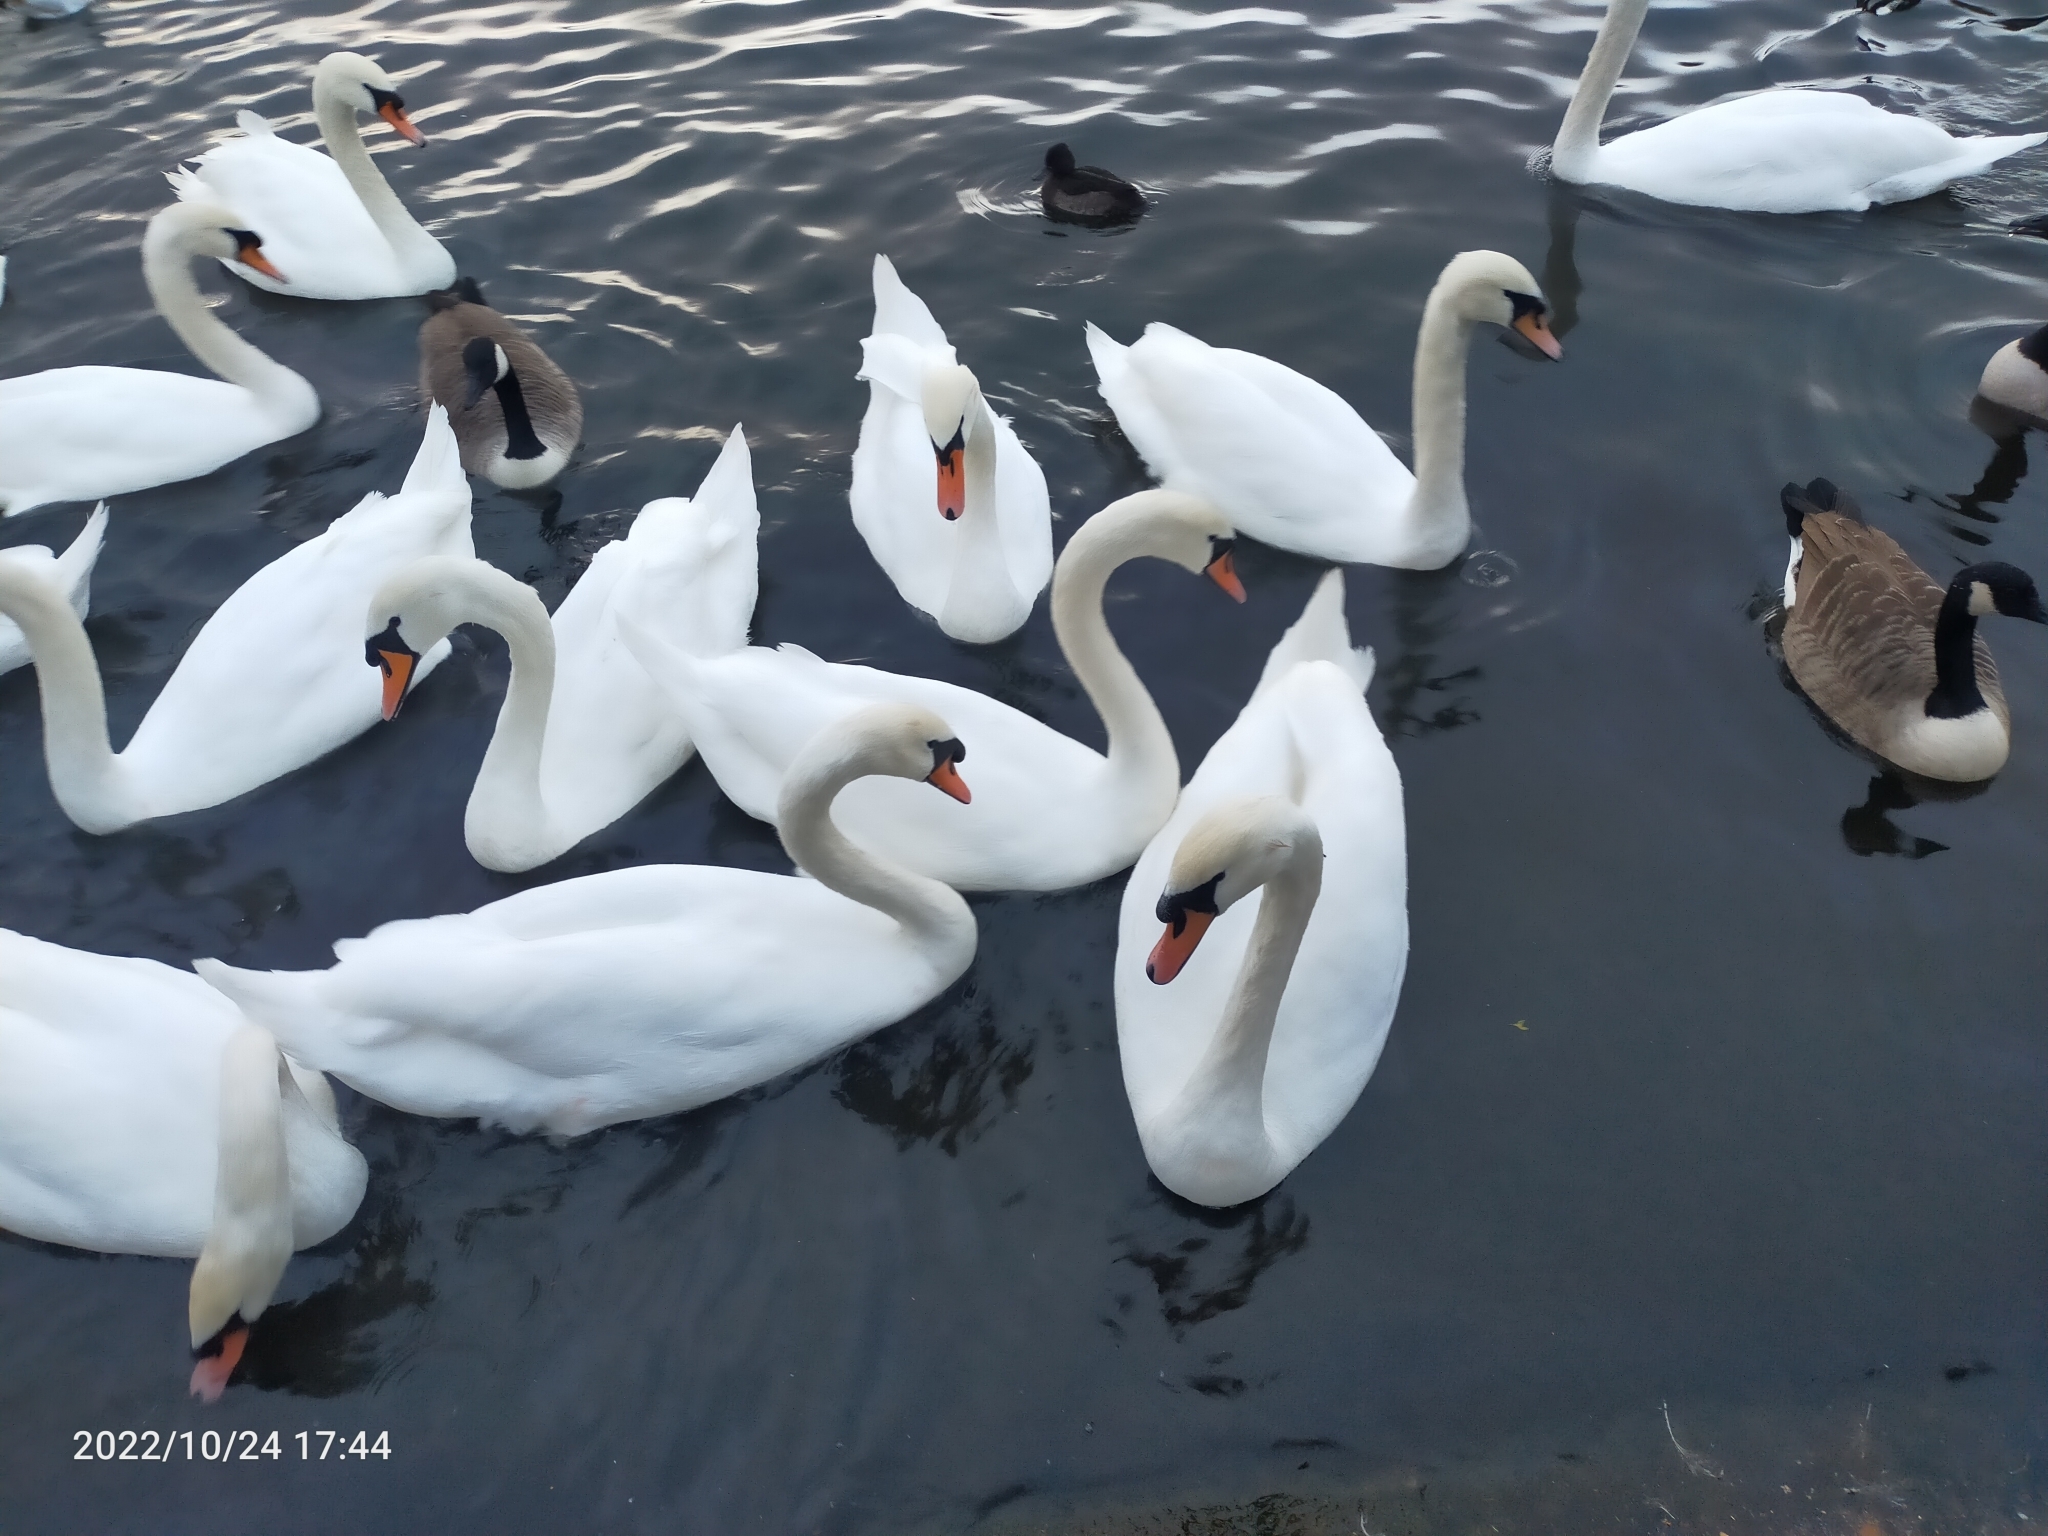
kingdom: Animalia
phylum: Chordata
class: Aves
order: Anseriformes
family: Anatidae
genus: Cygnus
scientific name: Cygnus olor
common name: Mute swan
